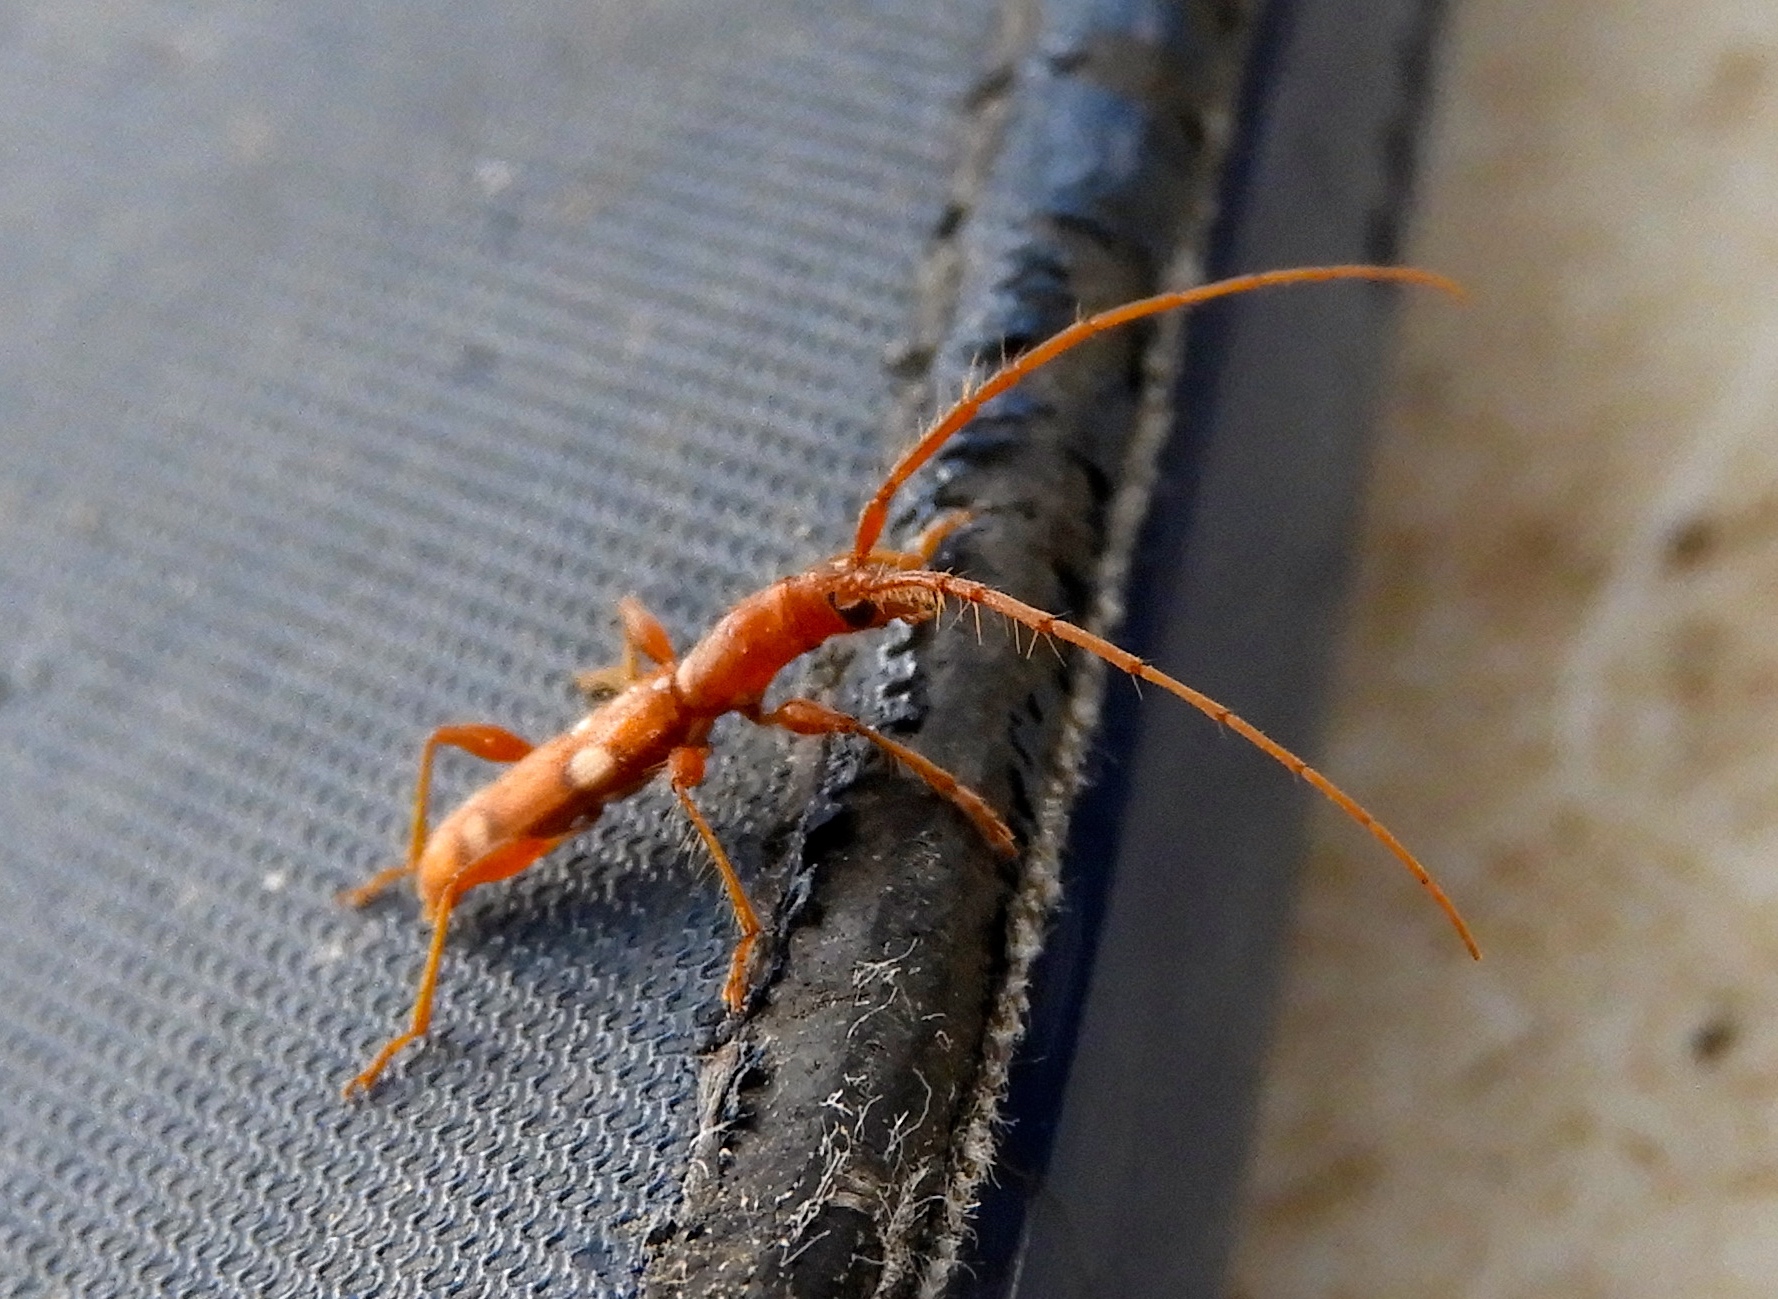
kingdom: Animalia
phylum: Arthropoda
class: Insecta
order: Coleoptera
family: Cerambycidae
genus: Neocompsa
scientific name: Neocompsa
